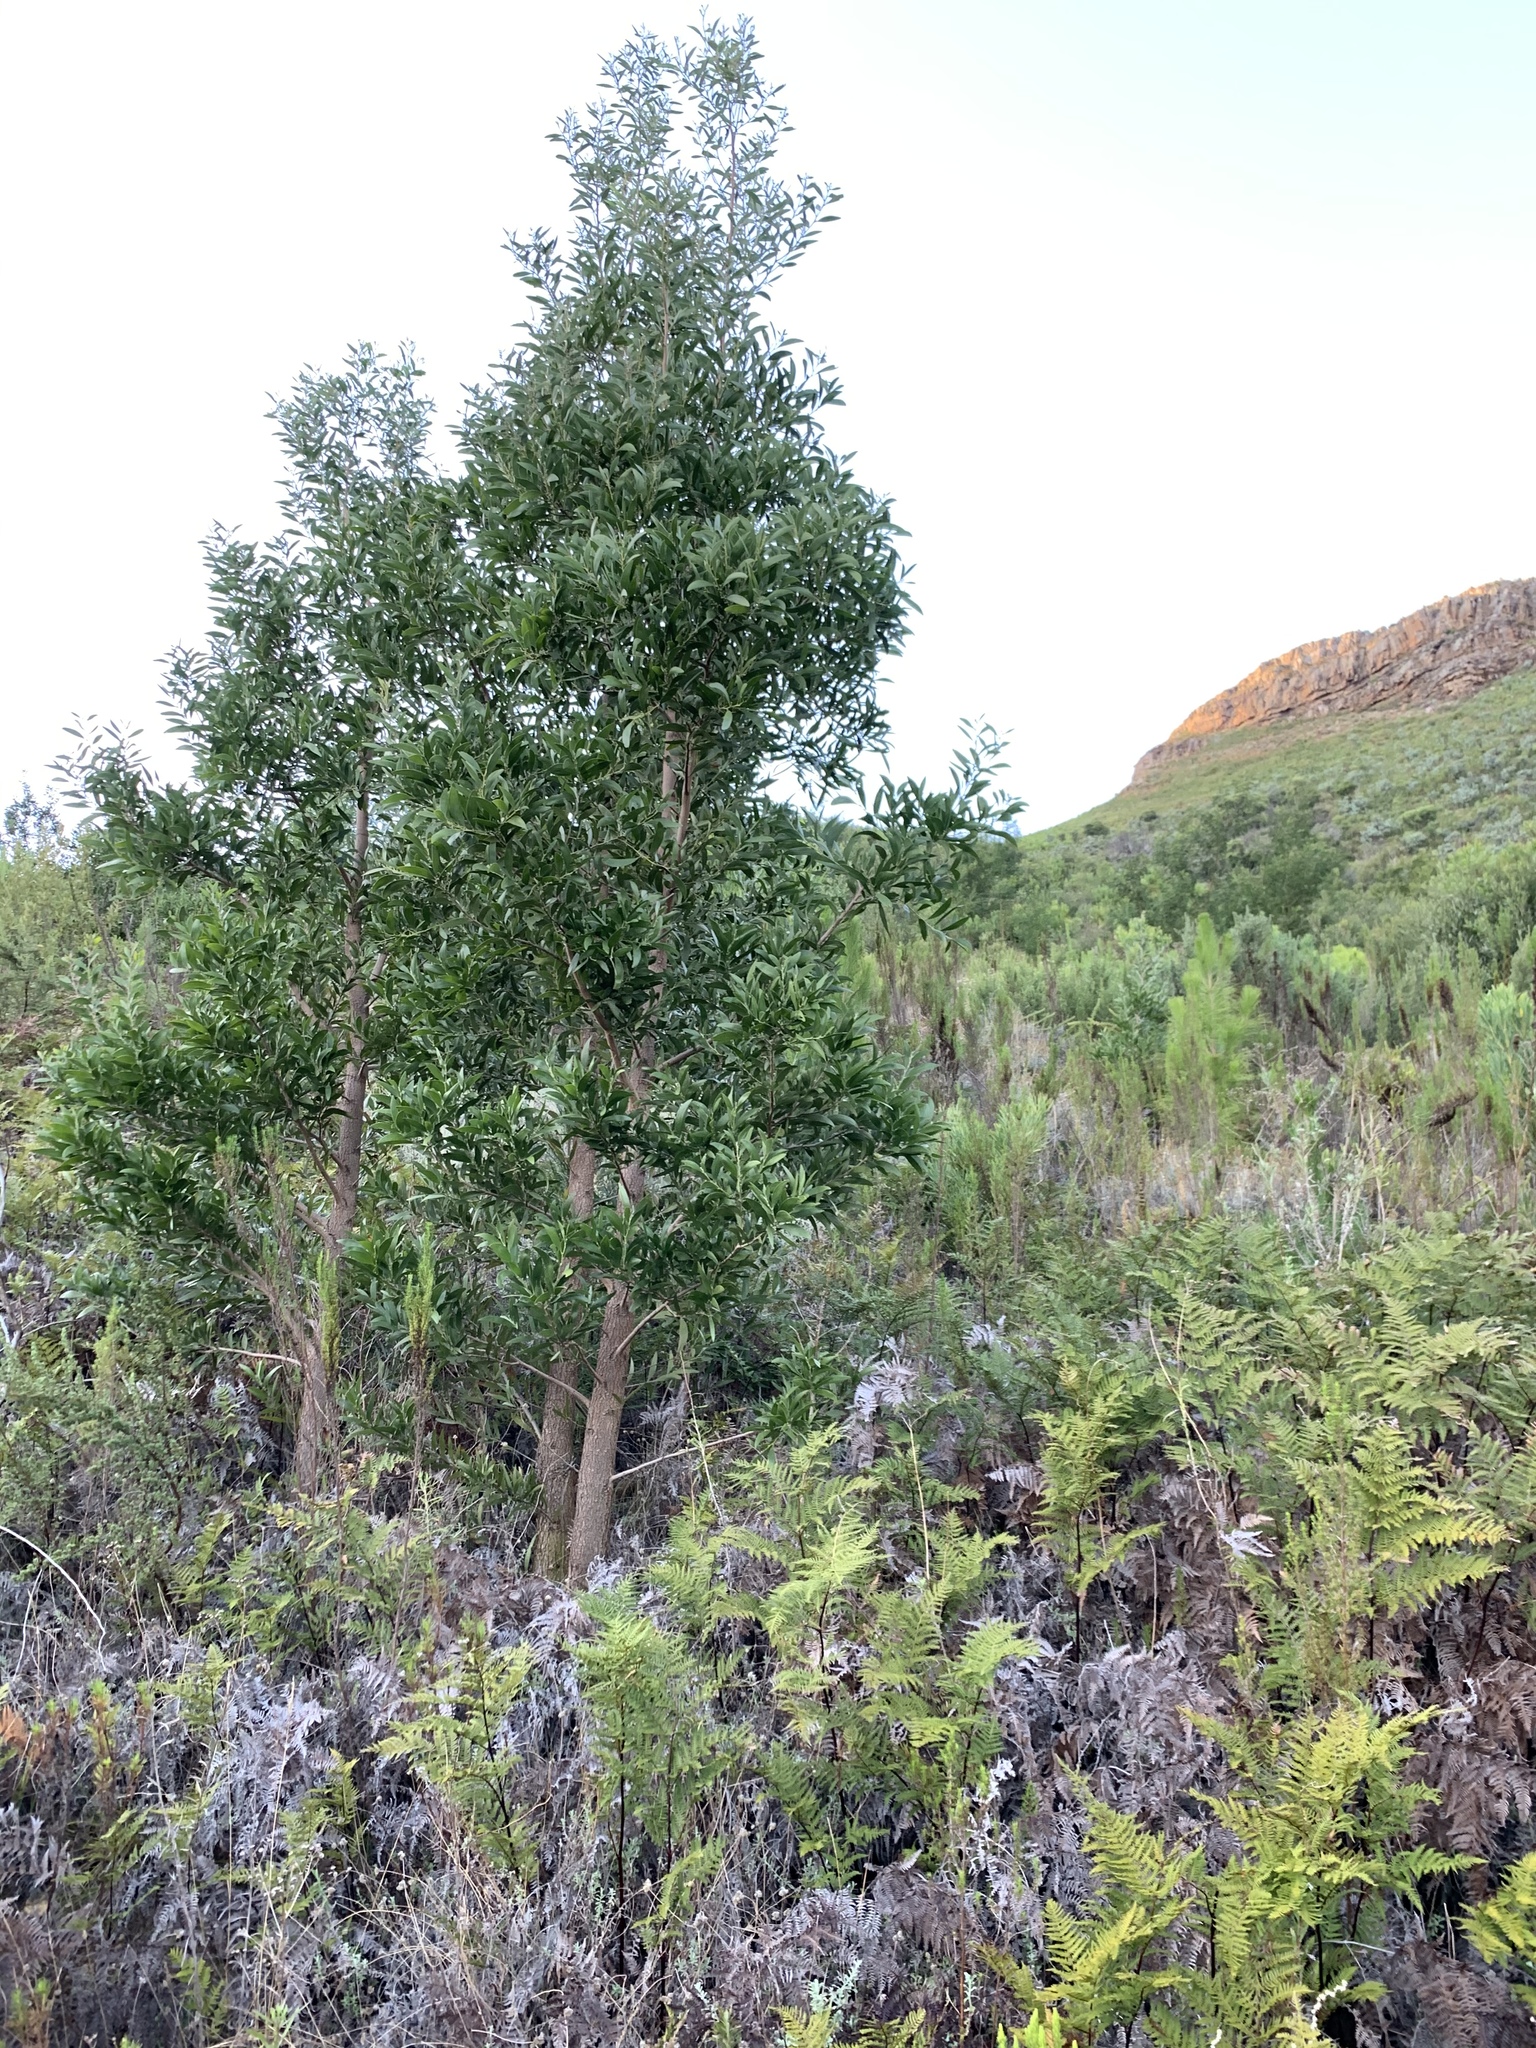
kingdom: Plantae
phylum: Tracheophyta
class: Magnoliopsida
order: Fabales
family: Fabaceae
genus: Acacia
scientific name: Acacia melanoxylon
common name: Blackwood
